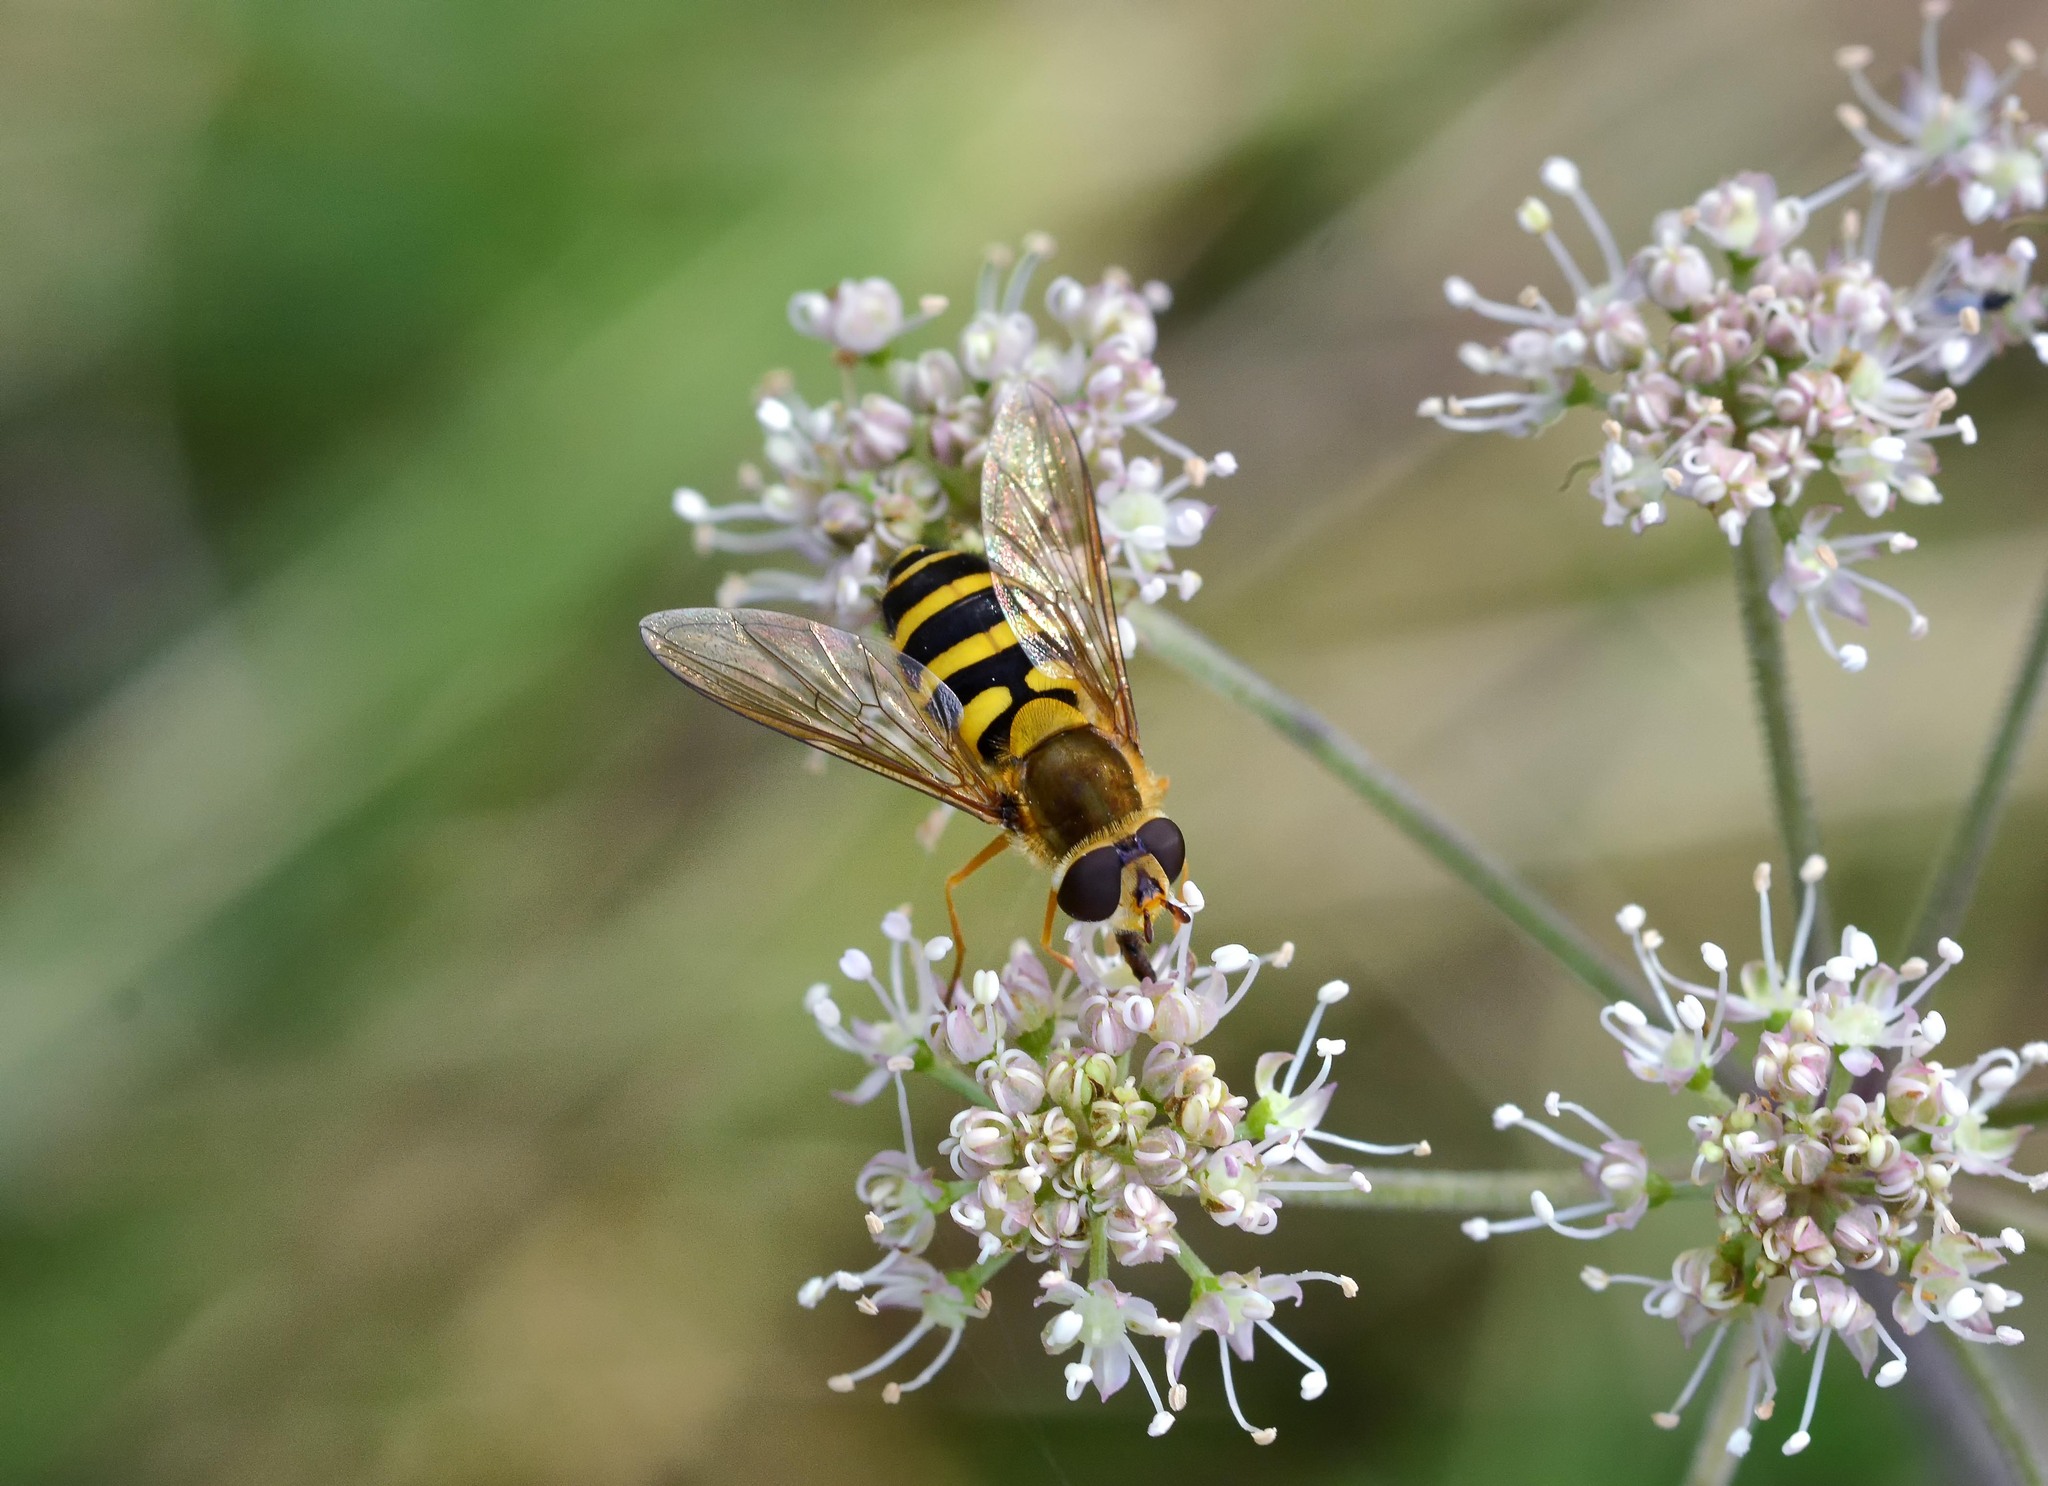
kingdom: Animalia
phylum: Arthropoda
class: Insecta
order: Diptera
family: Syrphidae
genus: Syrphus
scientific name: Syrphus
